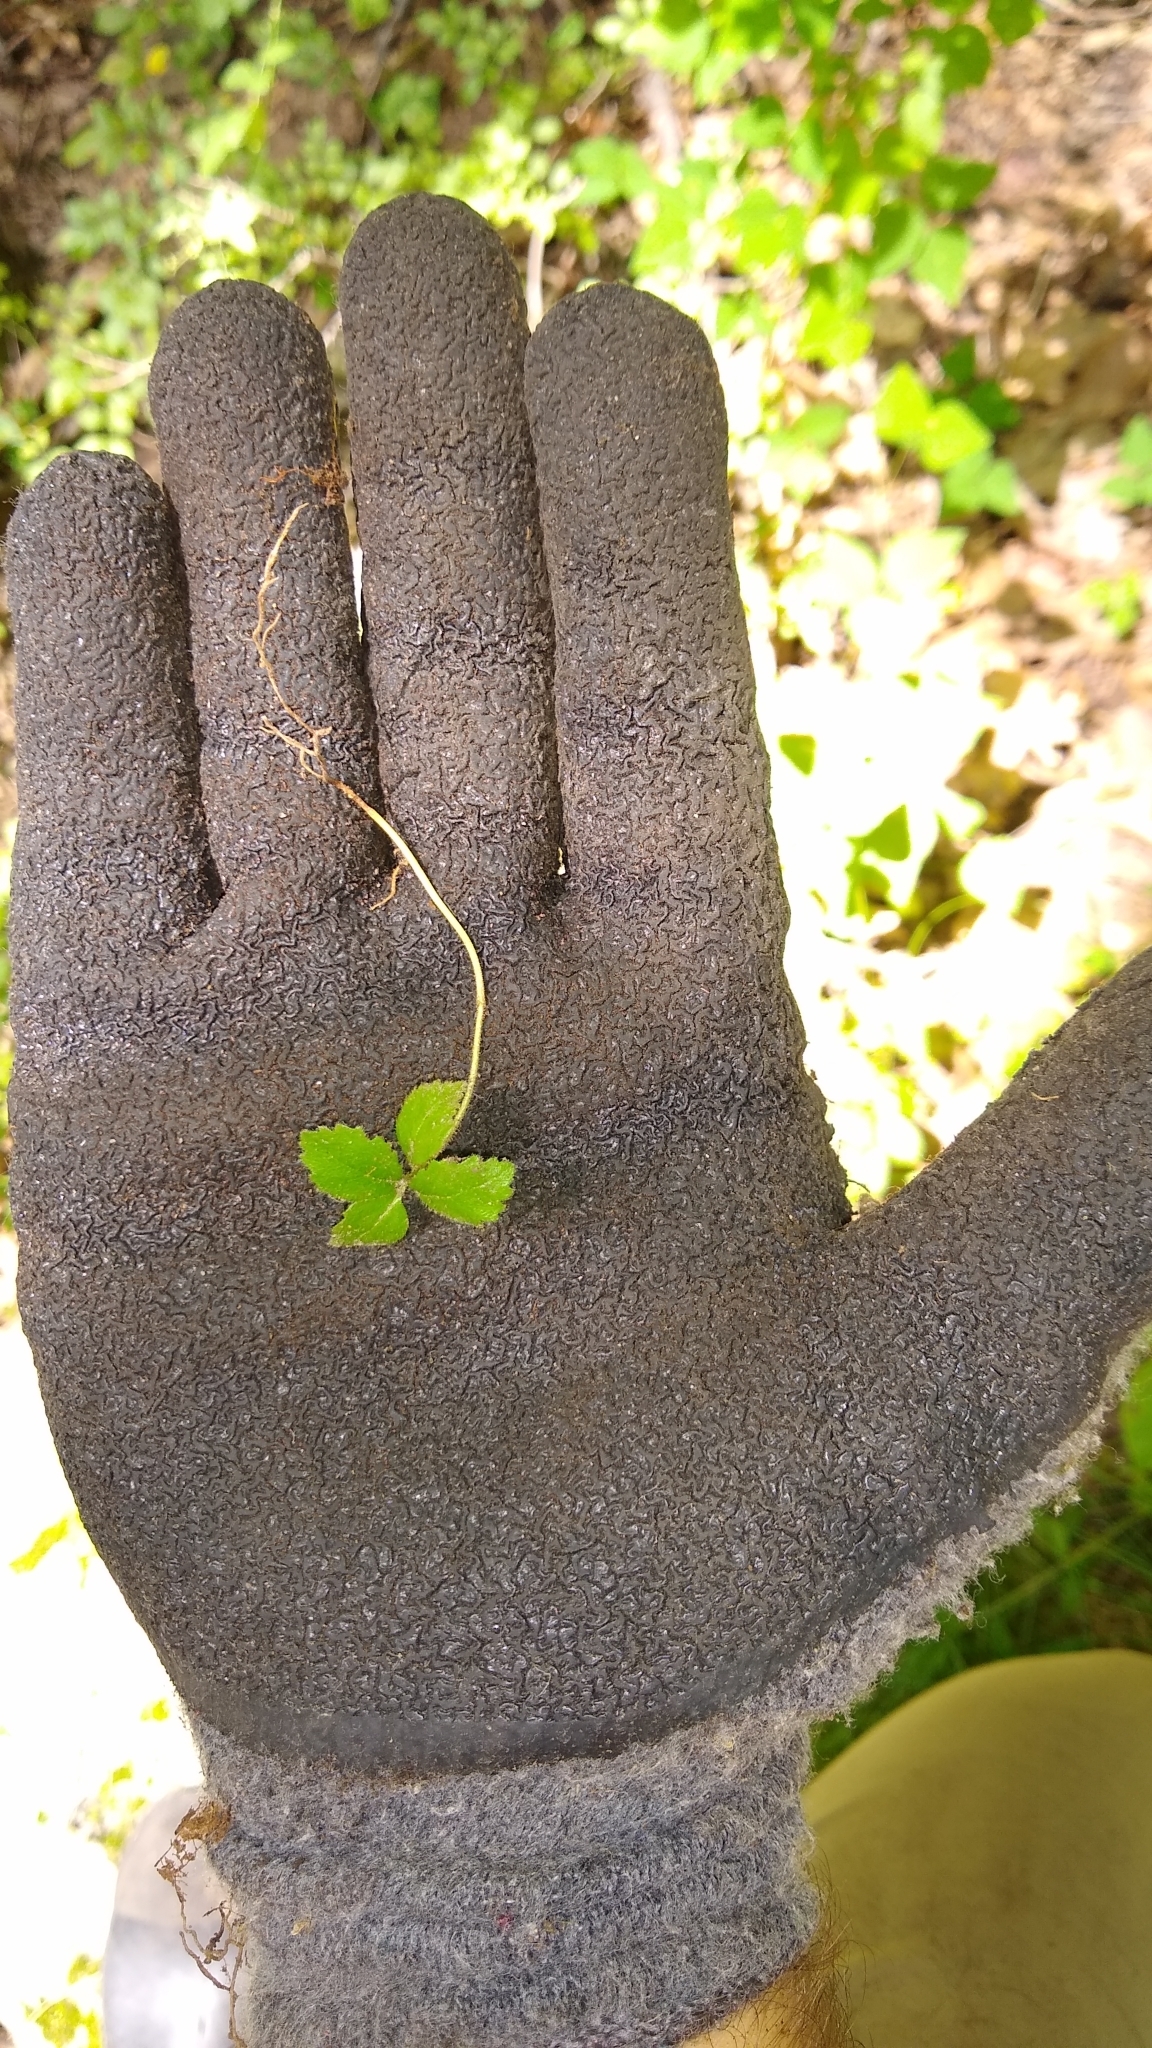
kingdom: Plantae
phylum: Tracheophyta
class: Magnoliopsida
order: Dipsacales
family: Viburnaceae
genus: Viburnum
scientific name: Viburnum dilatatum
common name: Linden arrowwood
